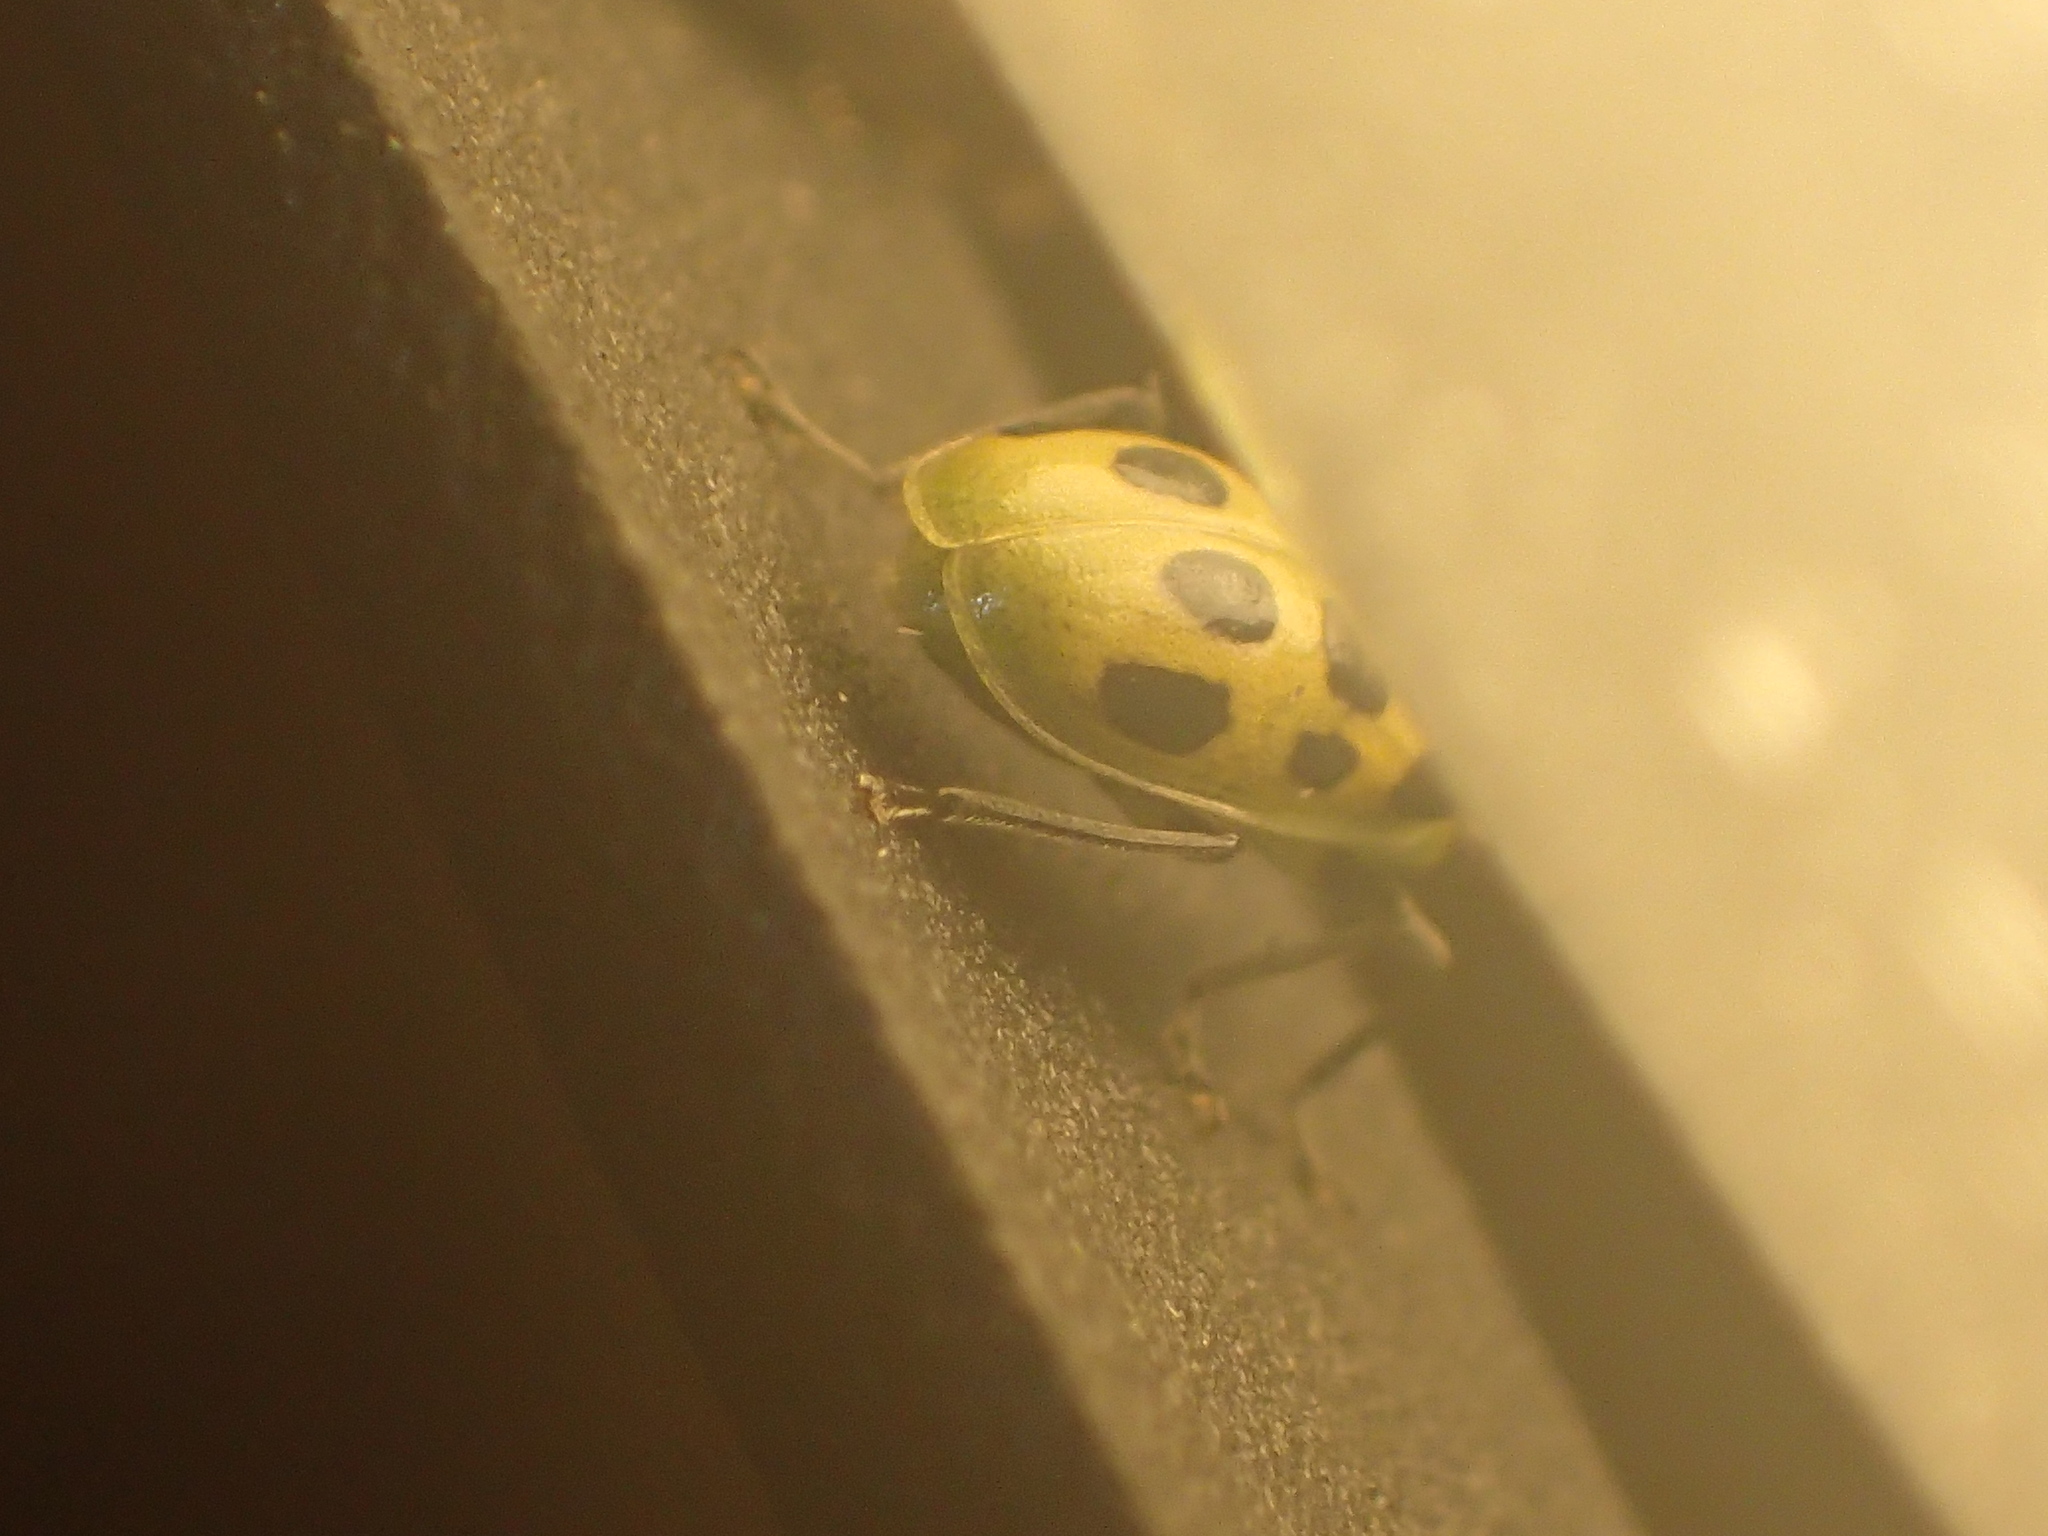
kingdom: Animalia
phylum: Arthropoda
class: Insecta
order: Coleoptera
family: Chrysomelidae
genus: Diabrotica
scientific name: Diabrotica undecimpunctata
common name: Spotted cucumber beetle
